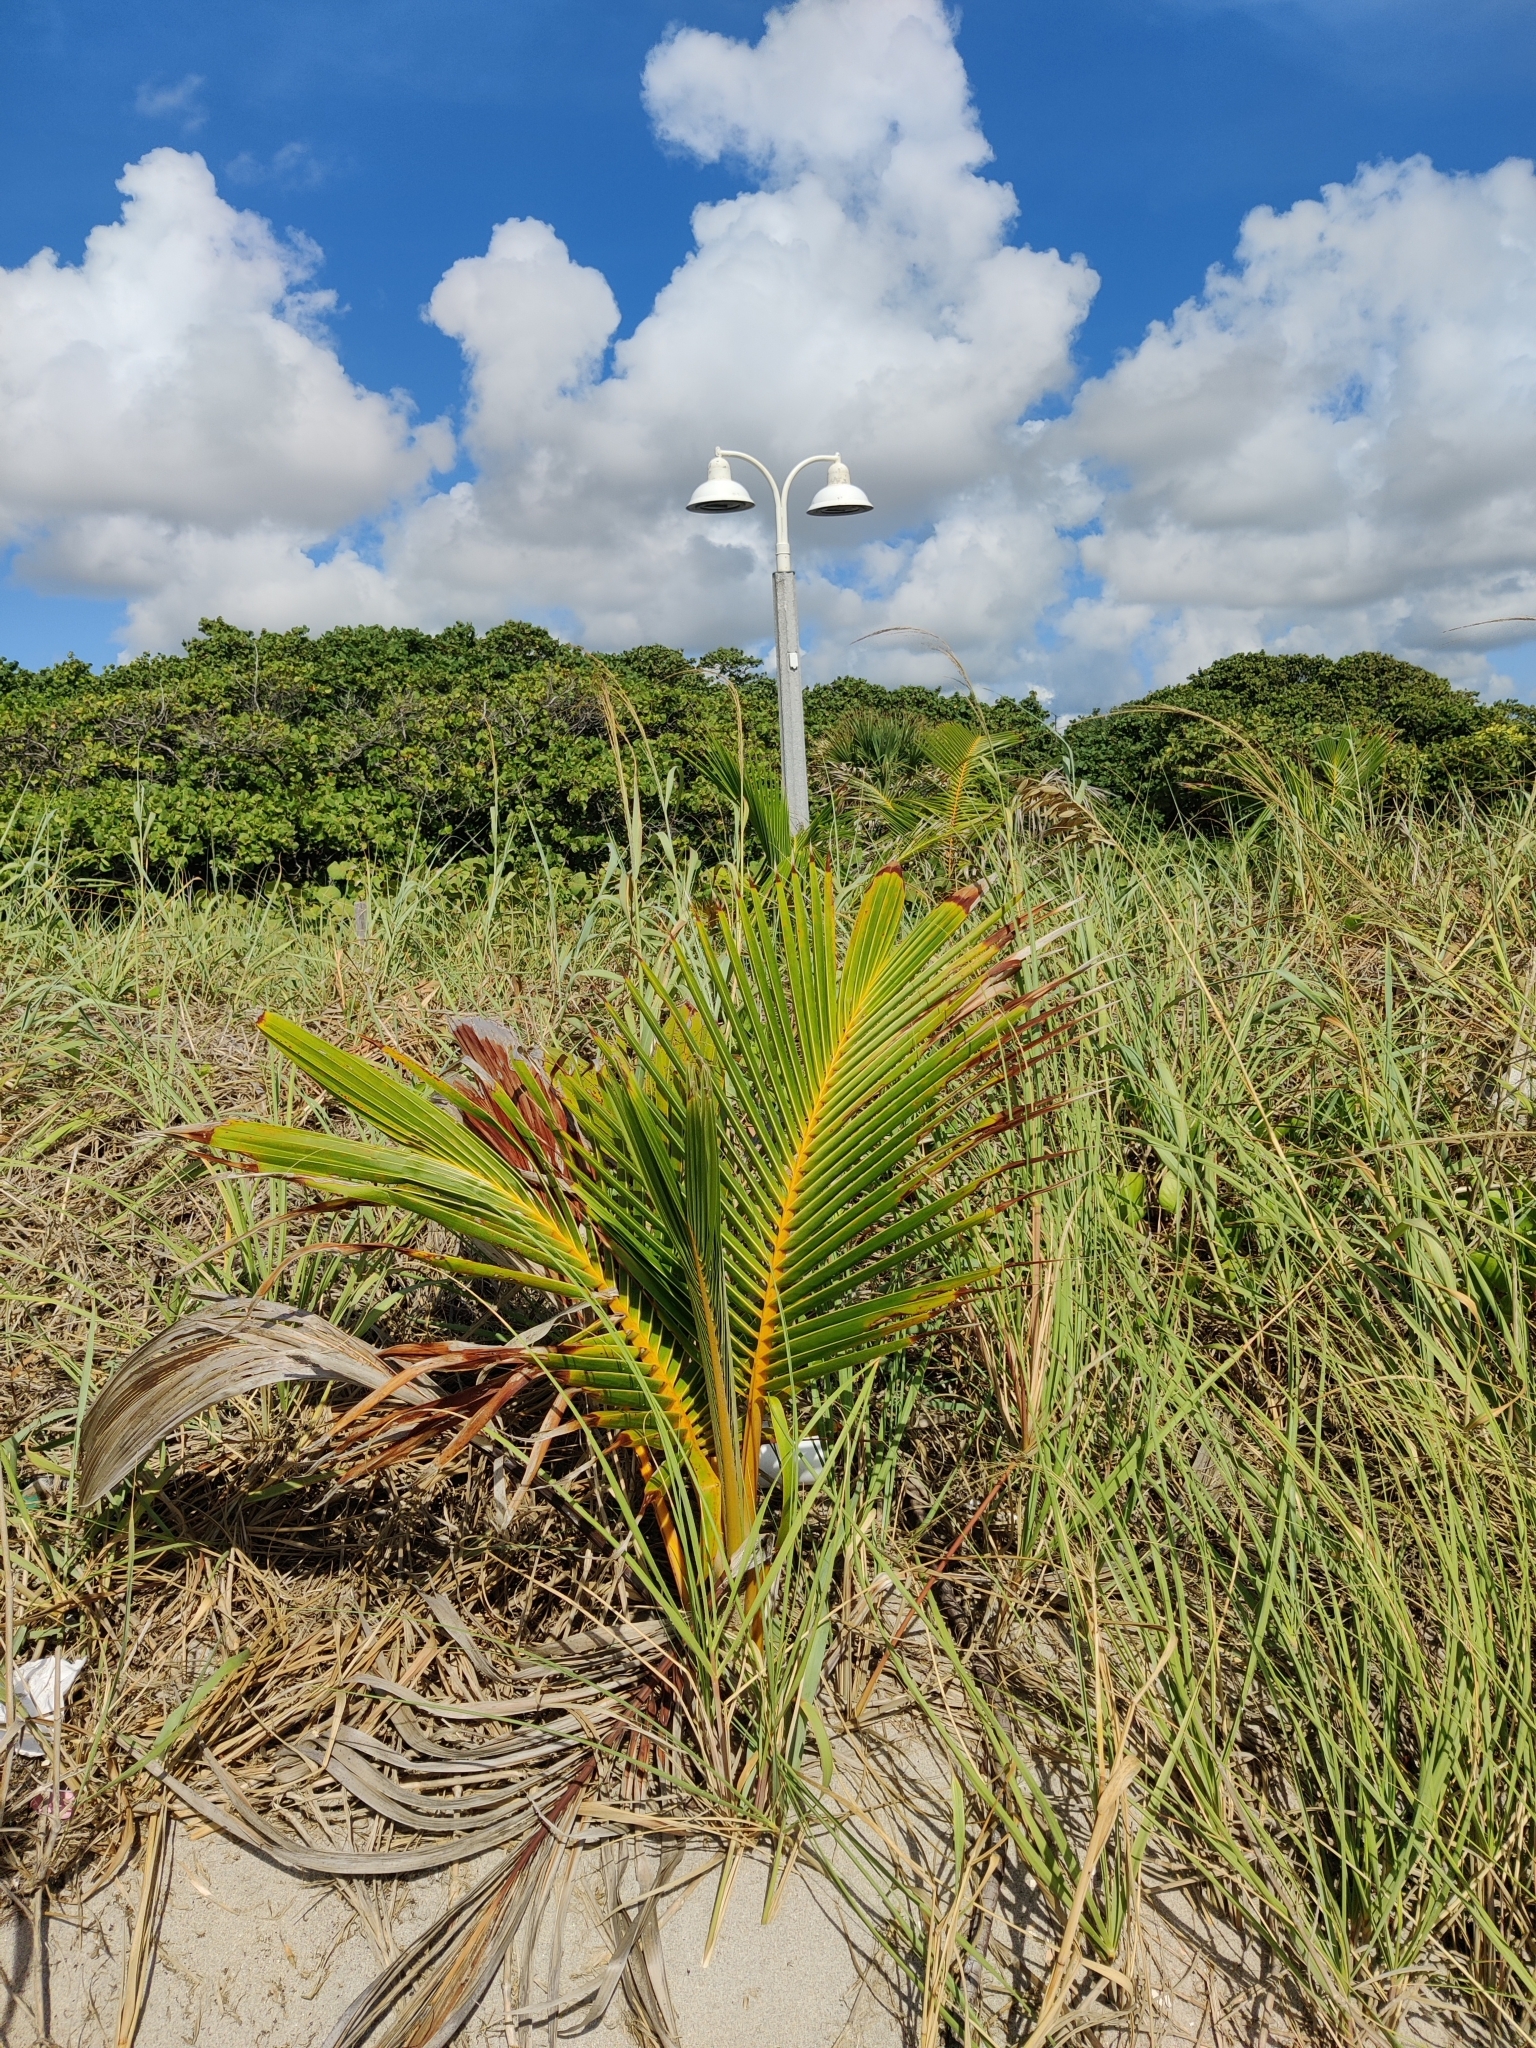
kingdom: Plantae
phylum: Tracheophyta
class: Liliopsida
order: Arecales
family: Arecaceae
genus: Cocos
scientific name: Cocos nucifera
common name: Coconut palm
